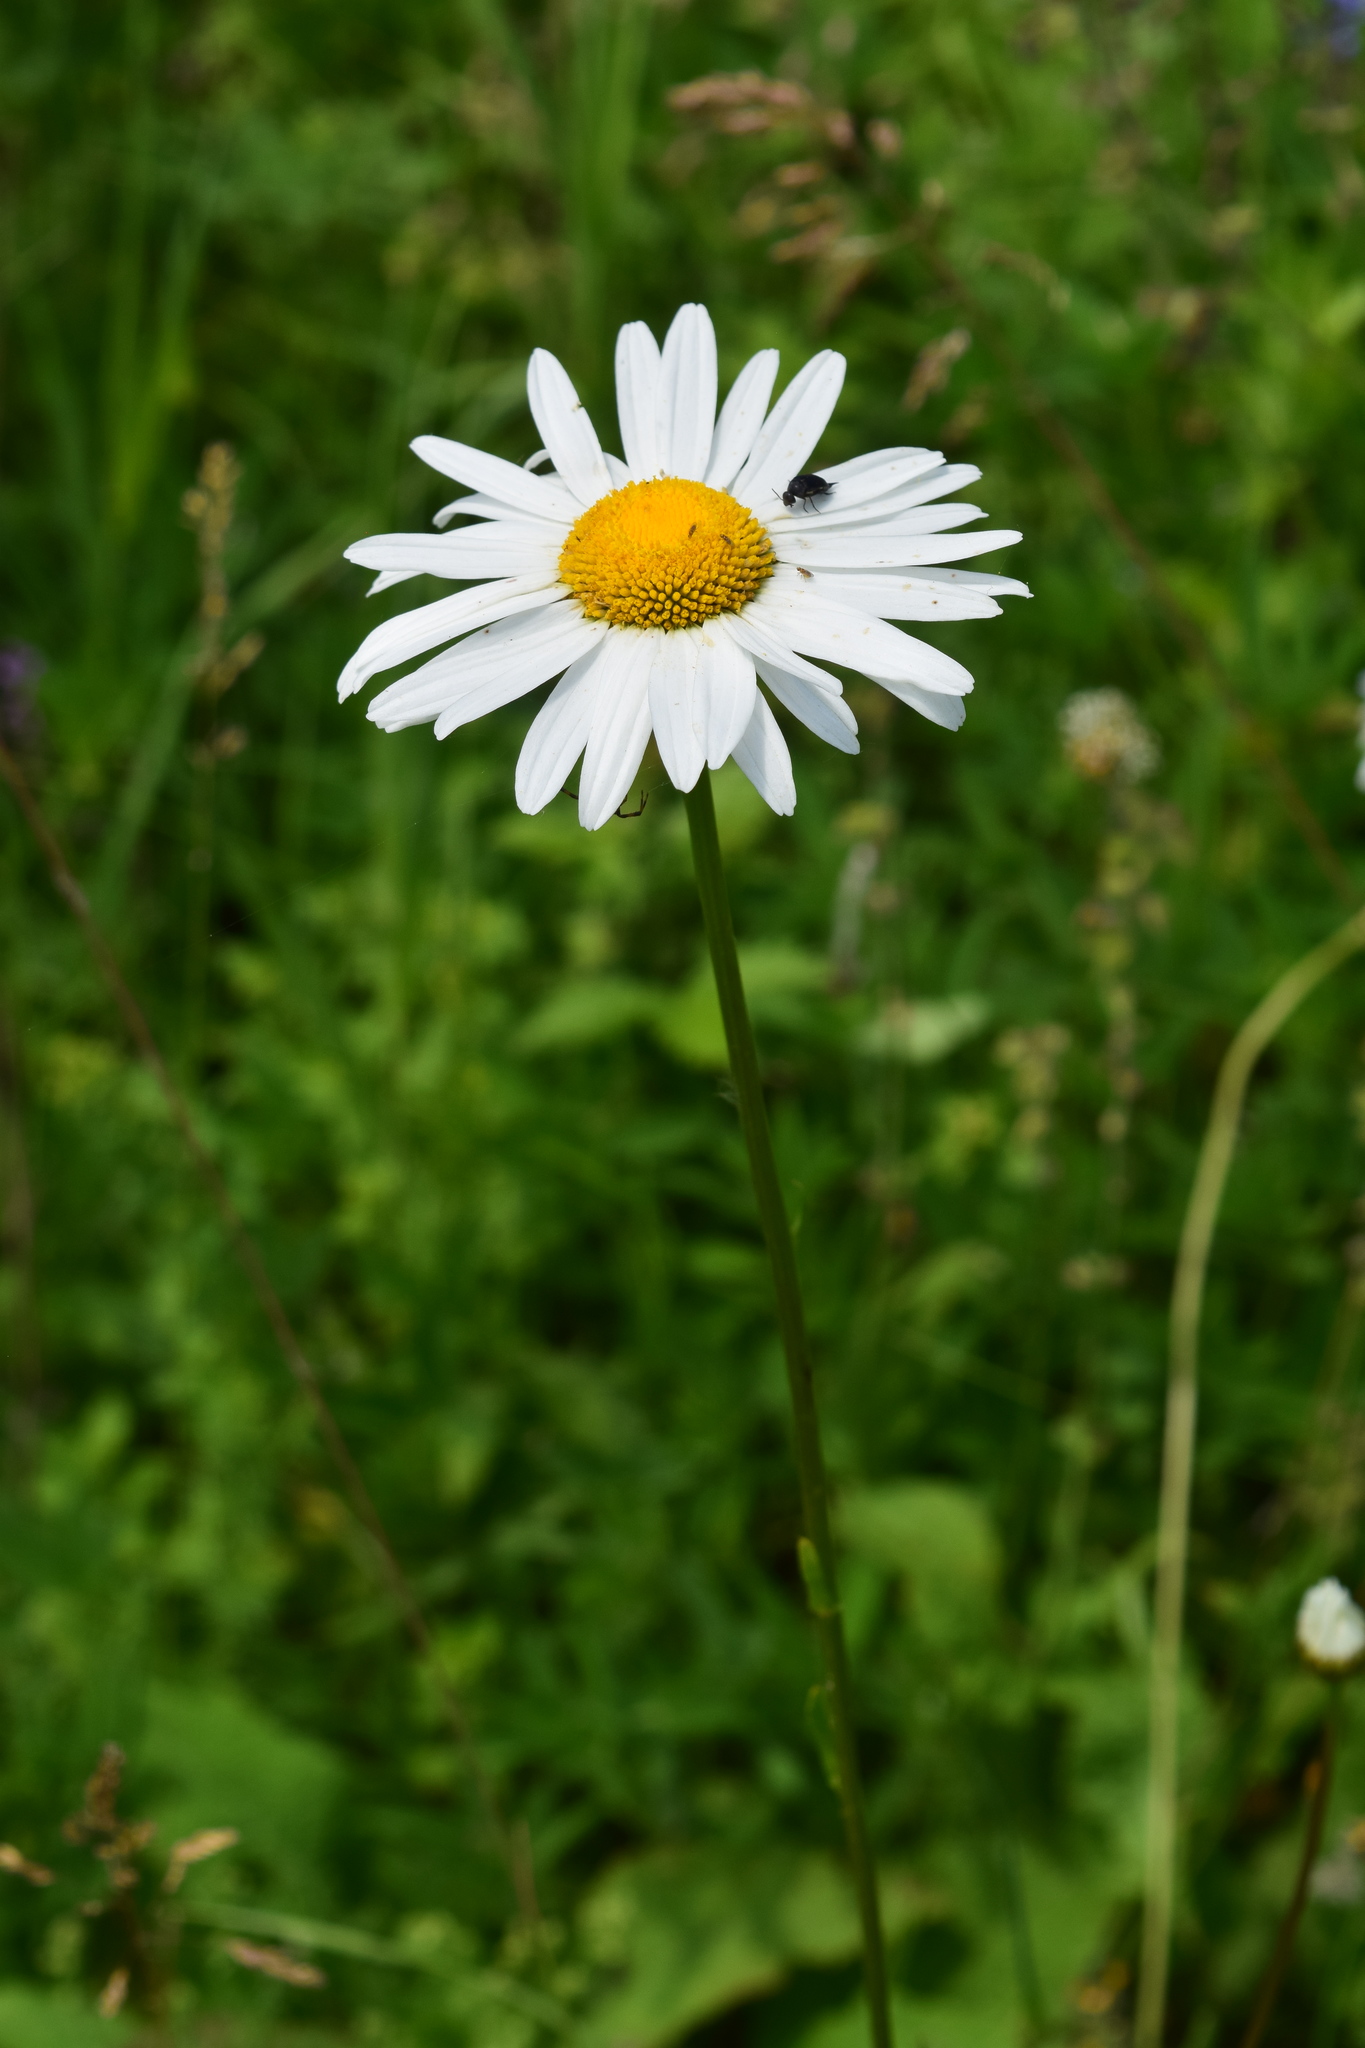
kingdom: Plantae
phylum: Tracheophyta
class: Magnoliopsida
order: Asterales
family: Asteraceae
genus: Leucanthemum
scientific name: Leucanthemum vulgare
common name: Oxeye daisy
